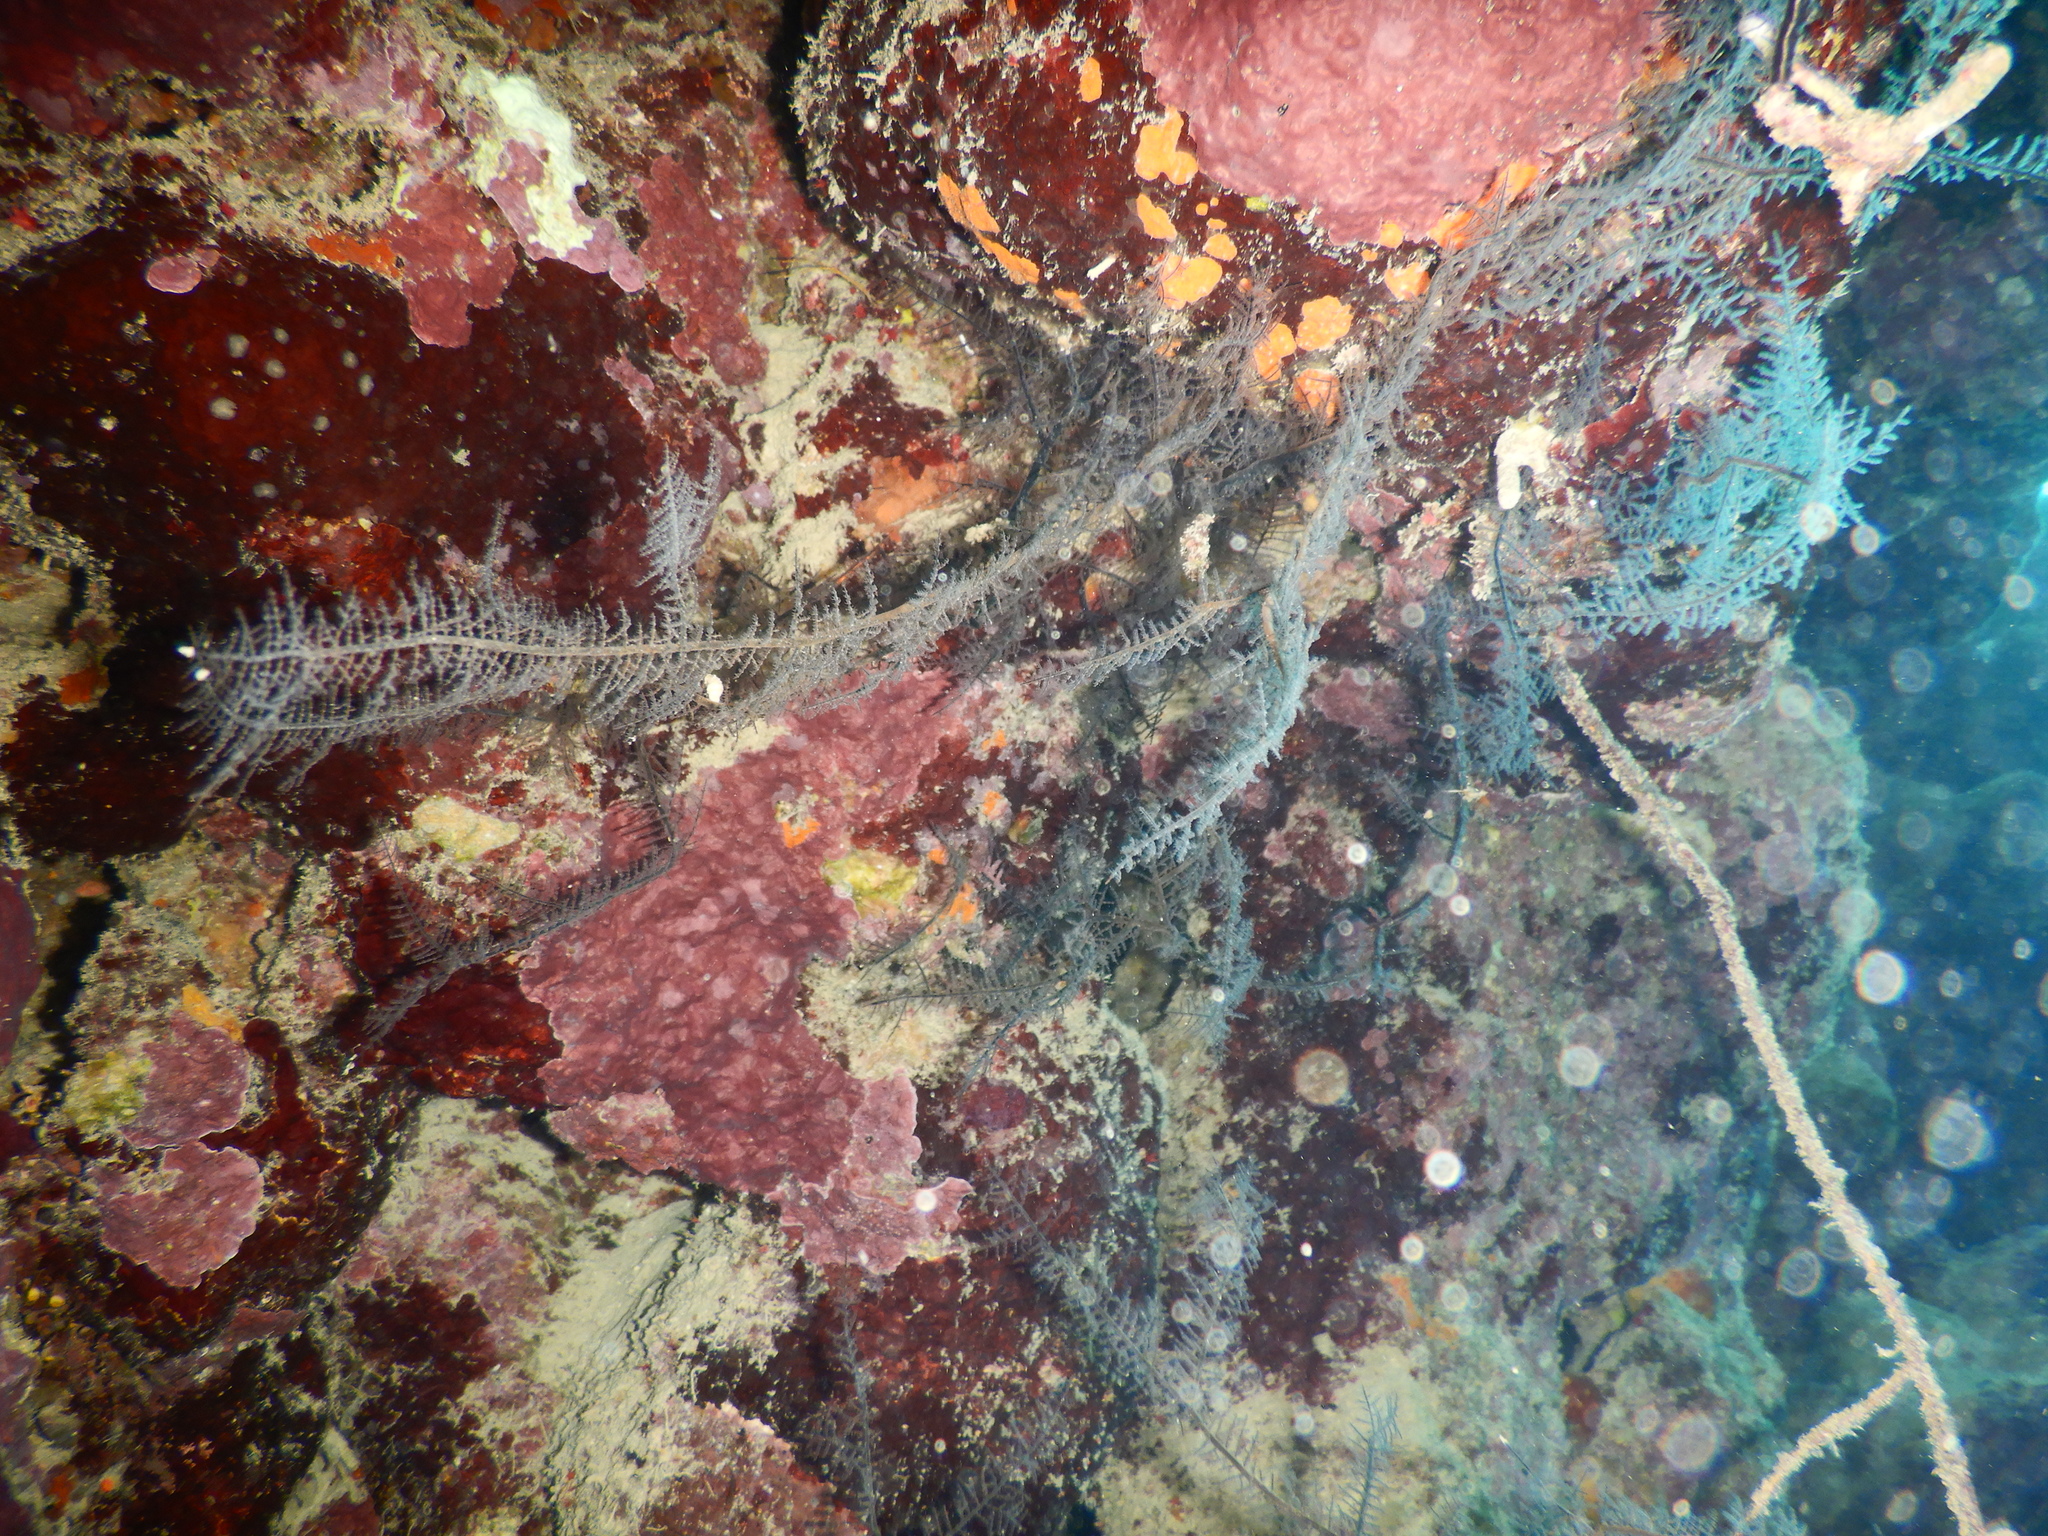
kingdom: Animalia
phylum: Cnidaria
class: Anthozoa
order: Antipatharia
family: Myriopathidae
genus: Myriopathes
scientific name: Myriopathes ulex
